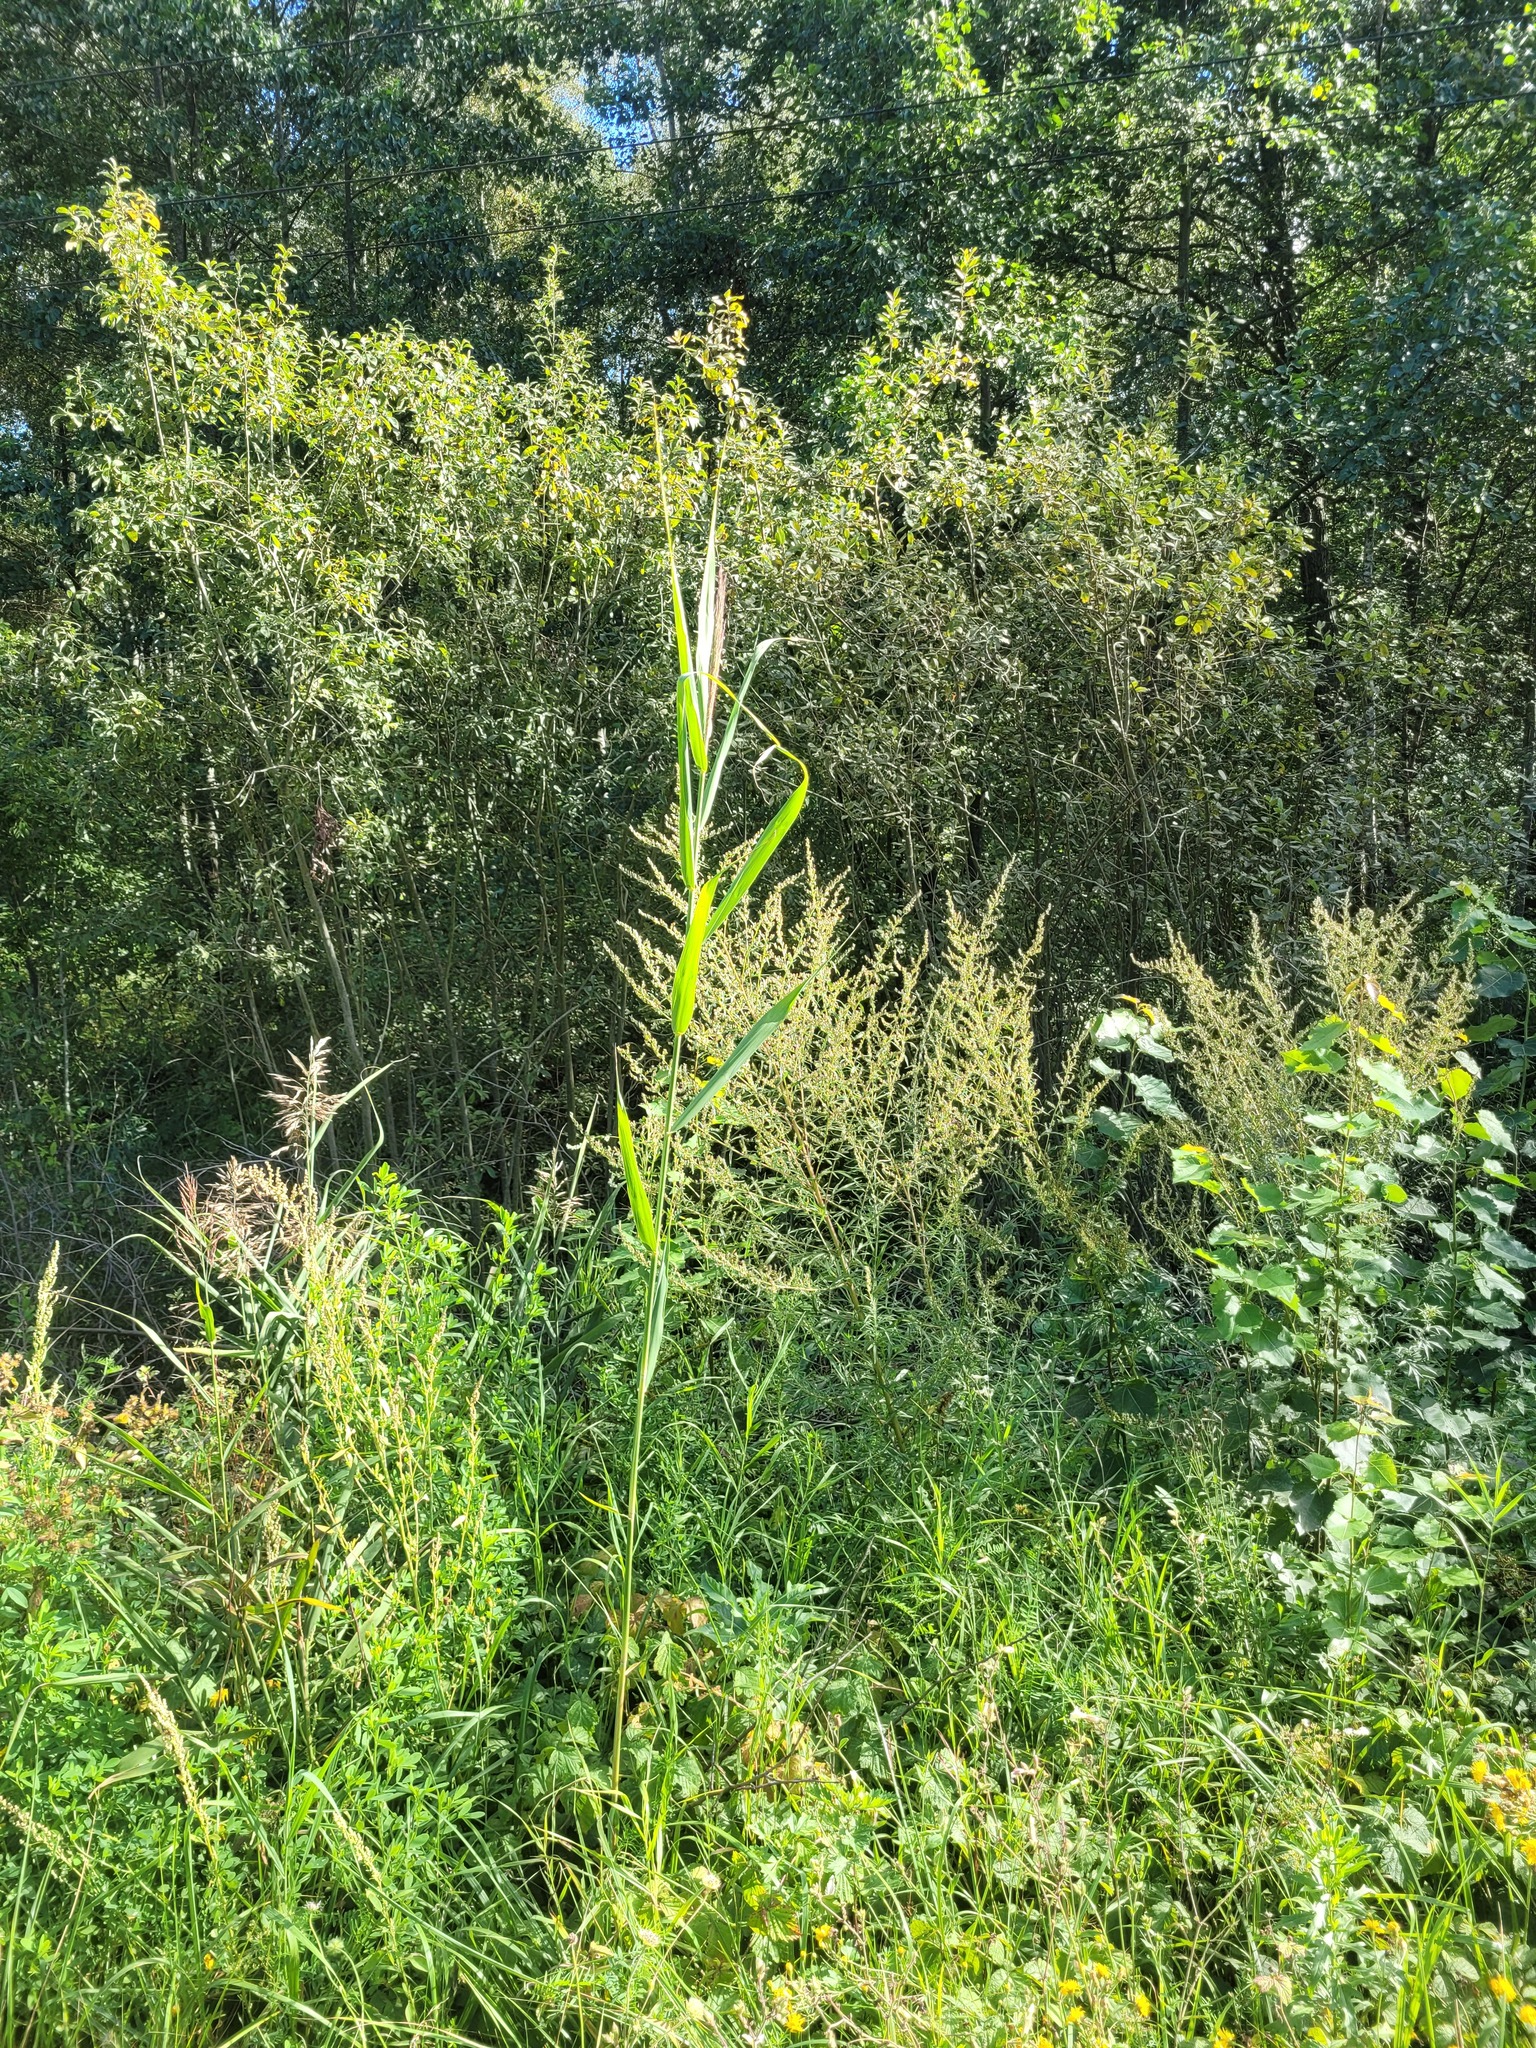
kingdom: Plantae
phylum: Tracheophyta
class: Liliopsida
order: Poales
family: Poaceae
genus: Phragmites
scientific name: Phragmites australis
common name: Common reed
